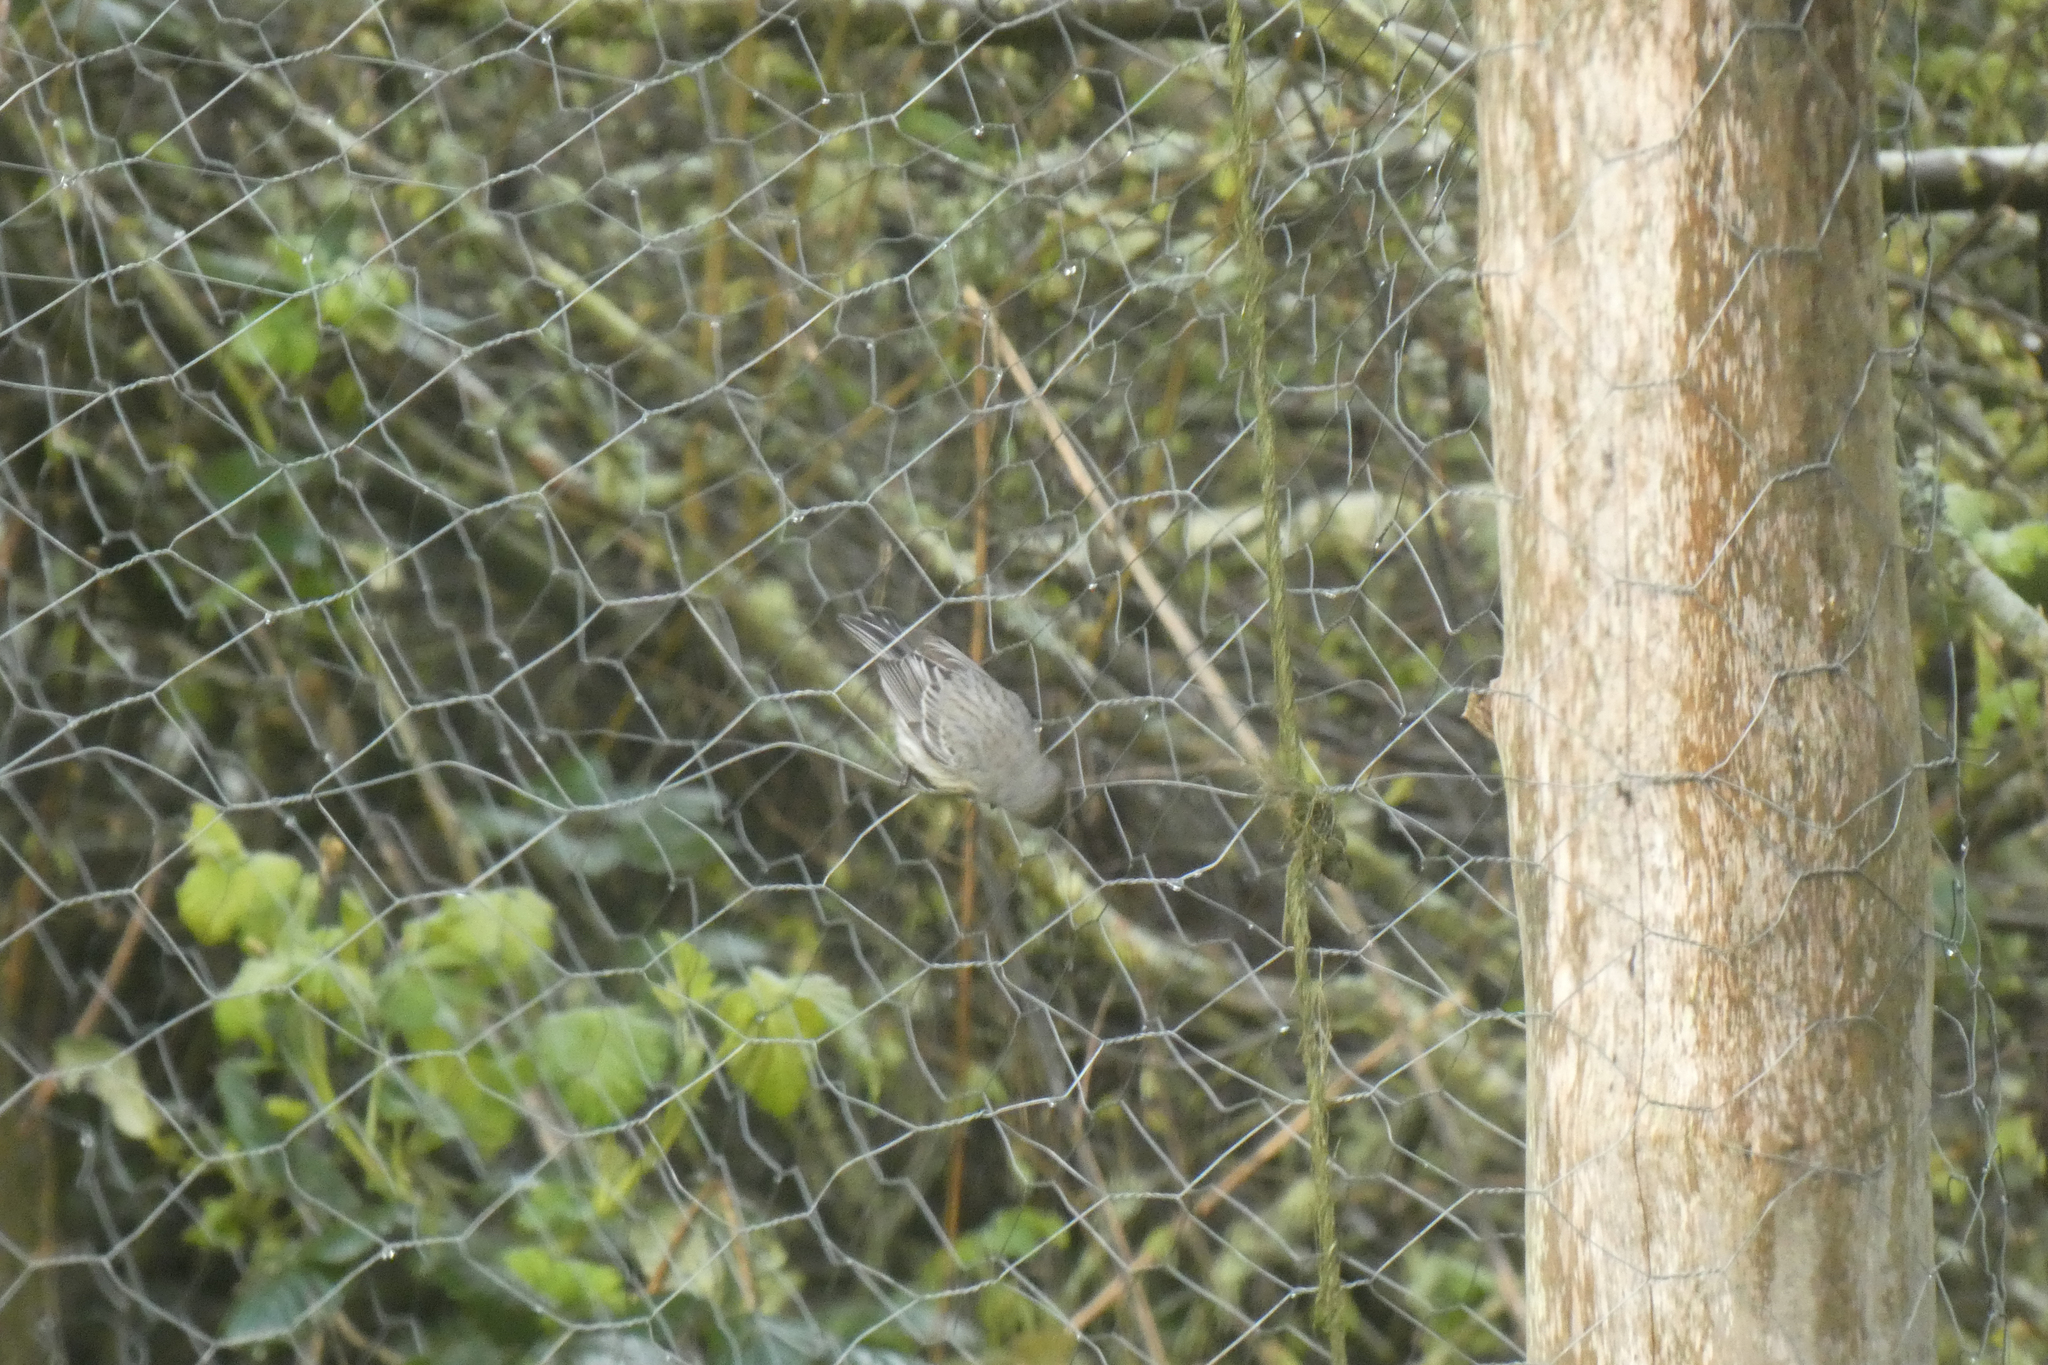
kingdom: Animalia
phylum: Chordata
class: Aves
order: Passeriformes
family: Parulidae
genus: Setophaga
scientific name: Setophaga coronata
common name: Myrtle warbler
